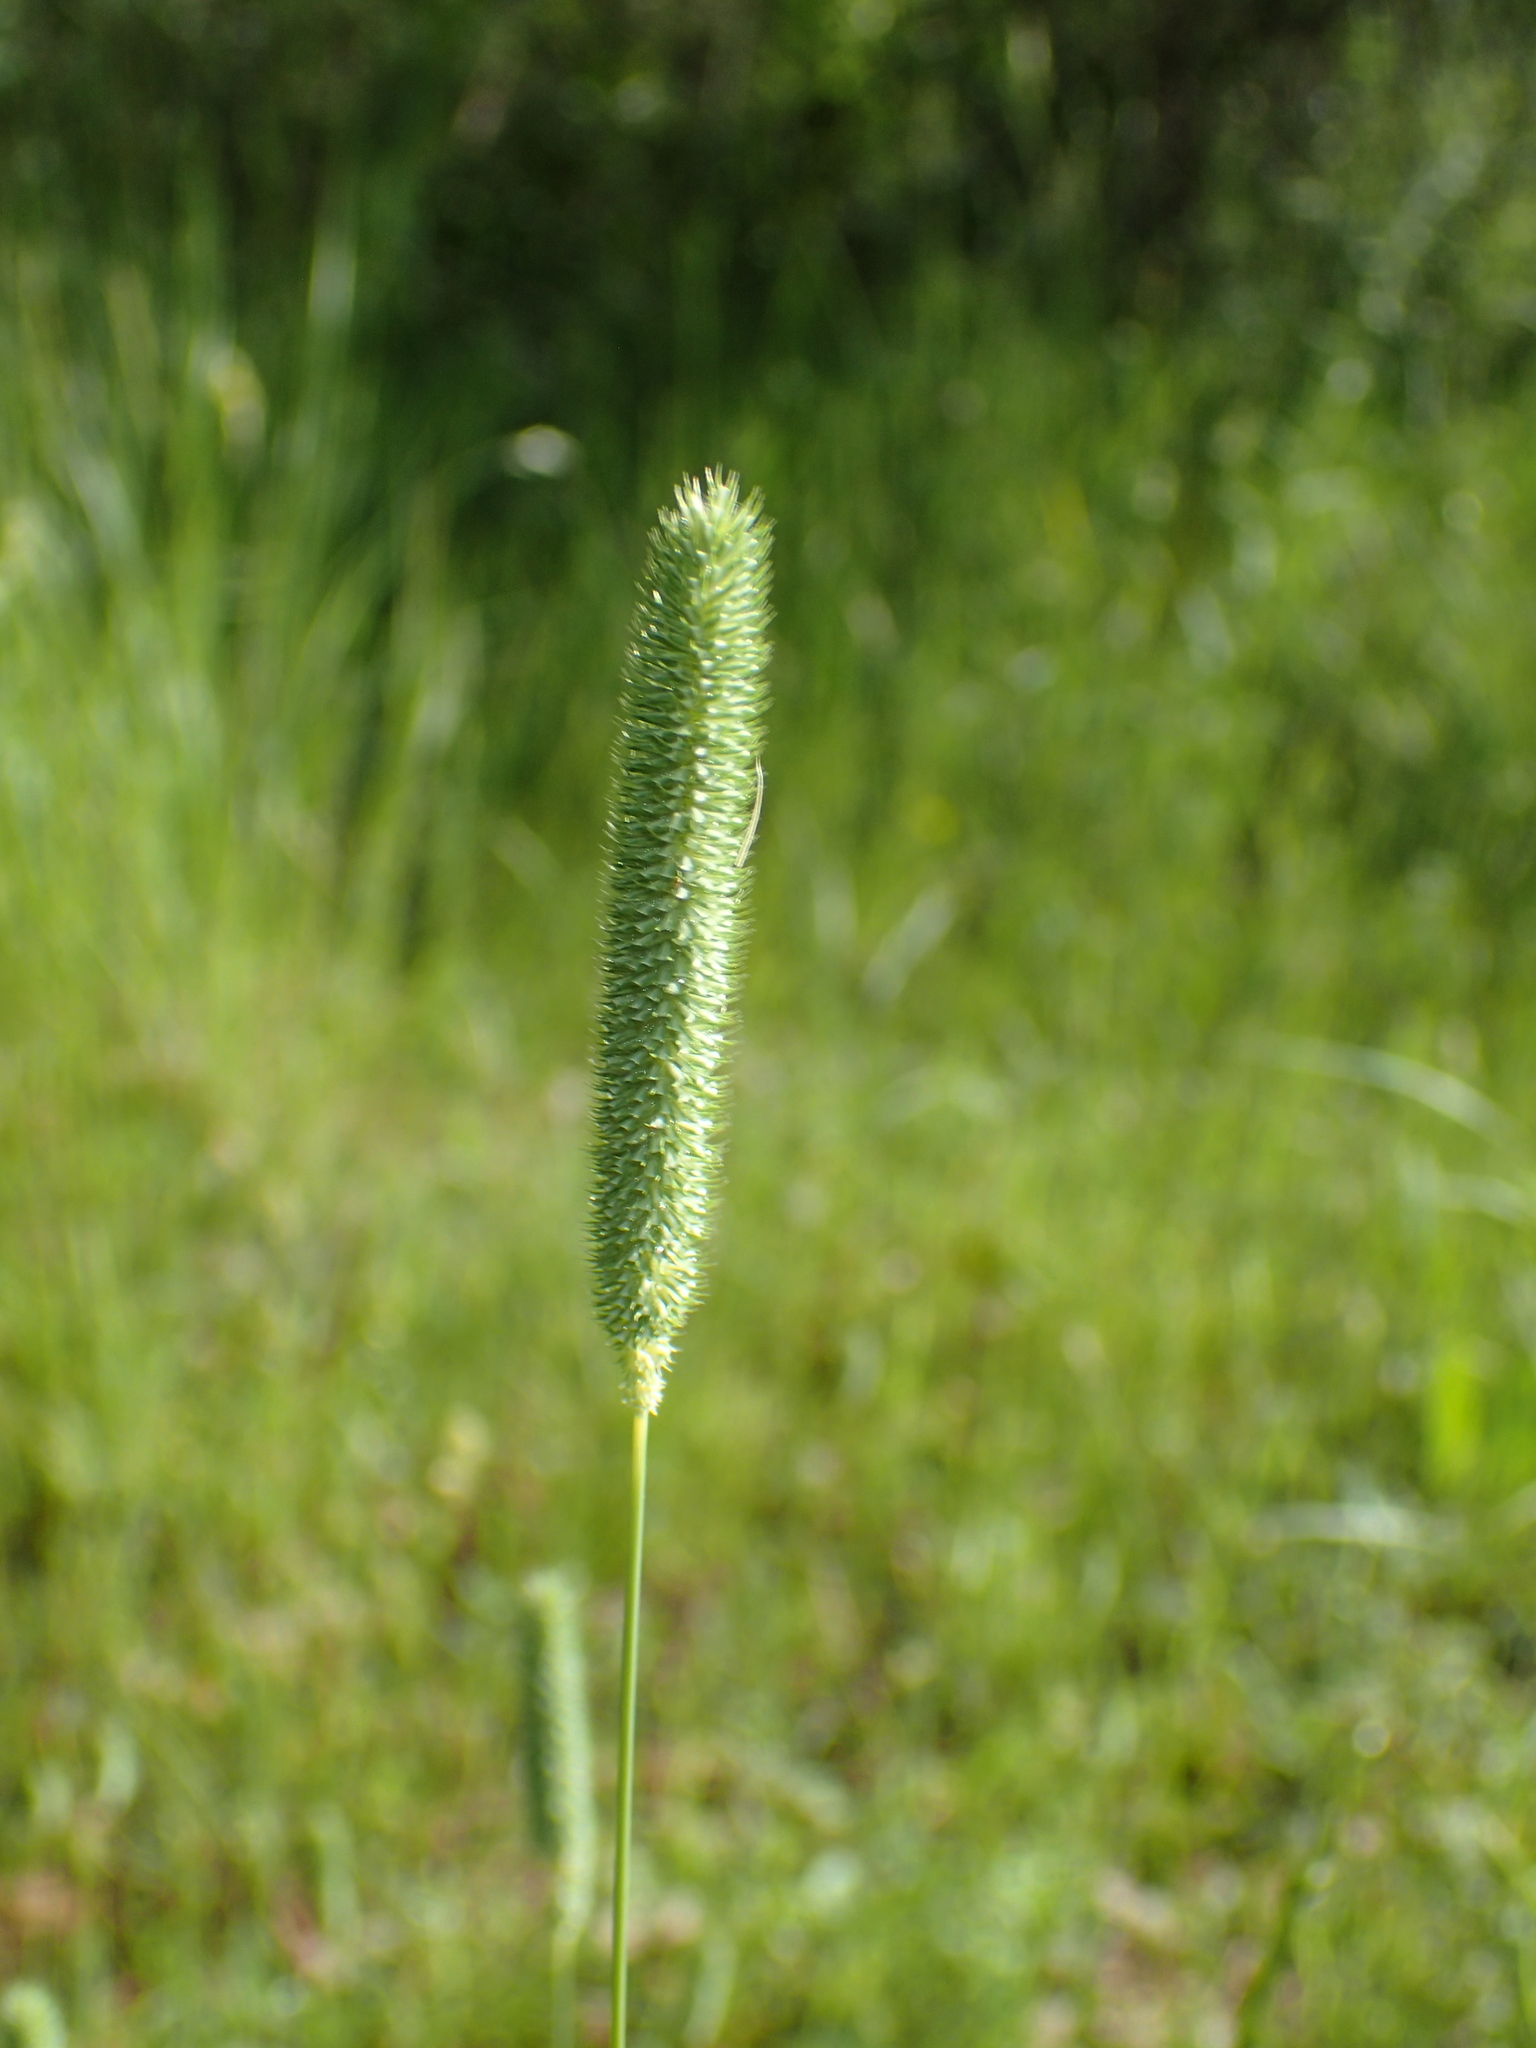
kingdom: Plantae
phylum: Tracheophyta
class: Liliopsida
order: Poales
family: Poaceae
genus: Phleum
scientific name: Phleum pratense
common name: Timothy grass
